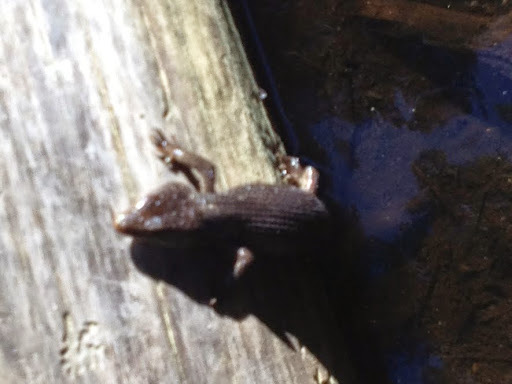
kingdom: Animalia
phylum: Chordata
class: Squamata
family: Anguidae
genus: Elgaria
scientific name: Elgaria coerulea
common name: Northern alligator lizard
